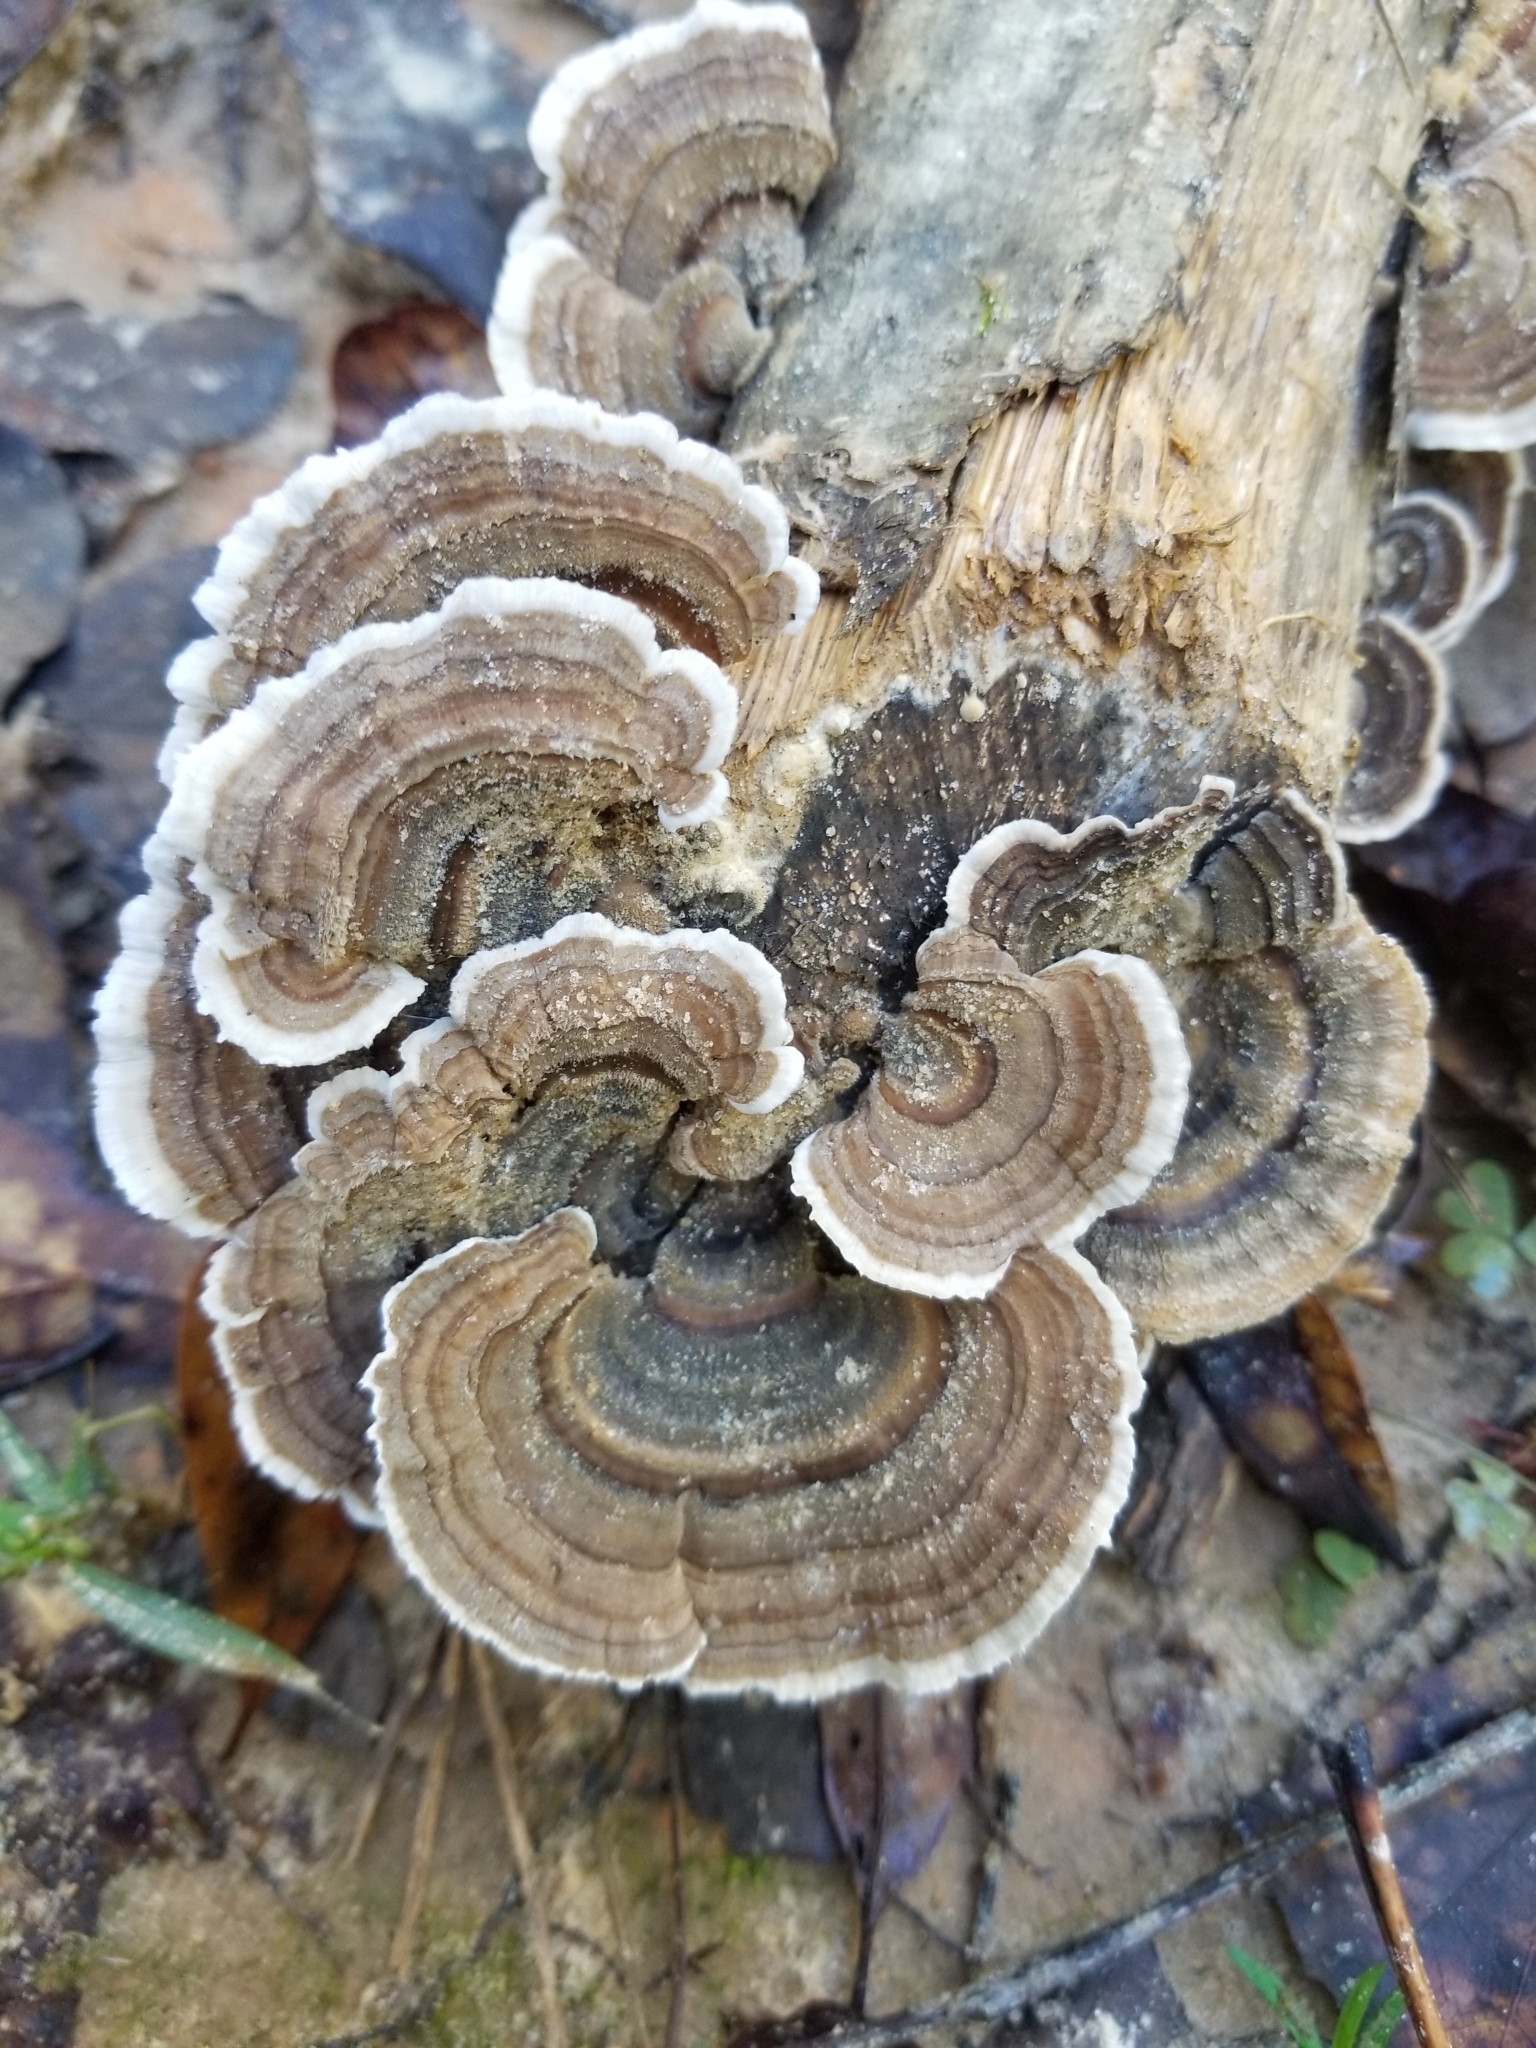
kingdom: Fungi
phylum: Basidiomycota
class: Agaricomycetes
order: Polyporales
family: Polyporaceae
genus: Trametes
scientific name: Trametes versicolor
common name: Turkeytail
